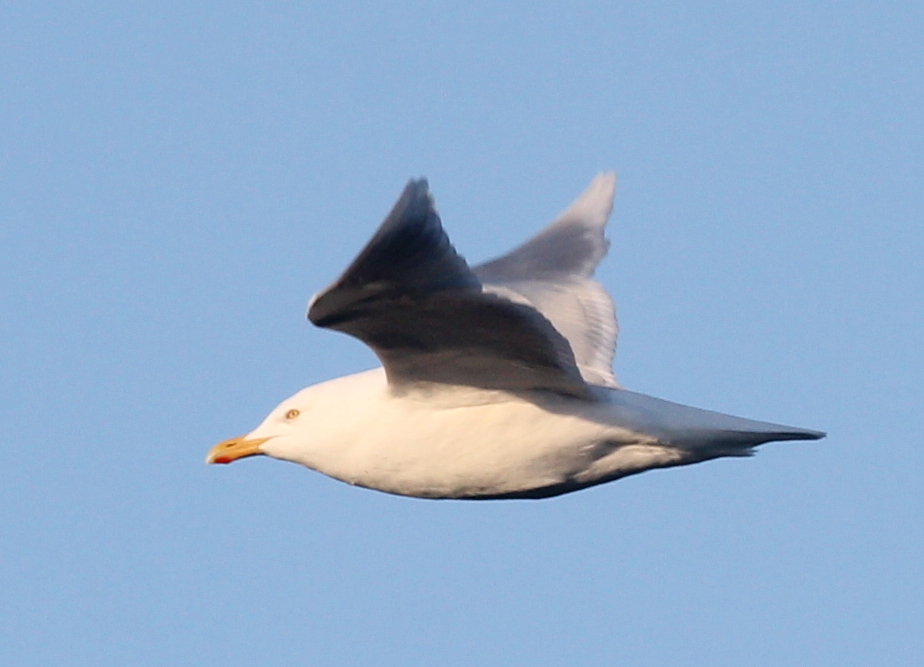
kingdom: Animalia
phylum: Chordata
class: Aves
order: Charadriiformes
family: Laridae
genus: Larus
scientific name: Larus hyperboreus
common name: Glaucous gull
